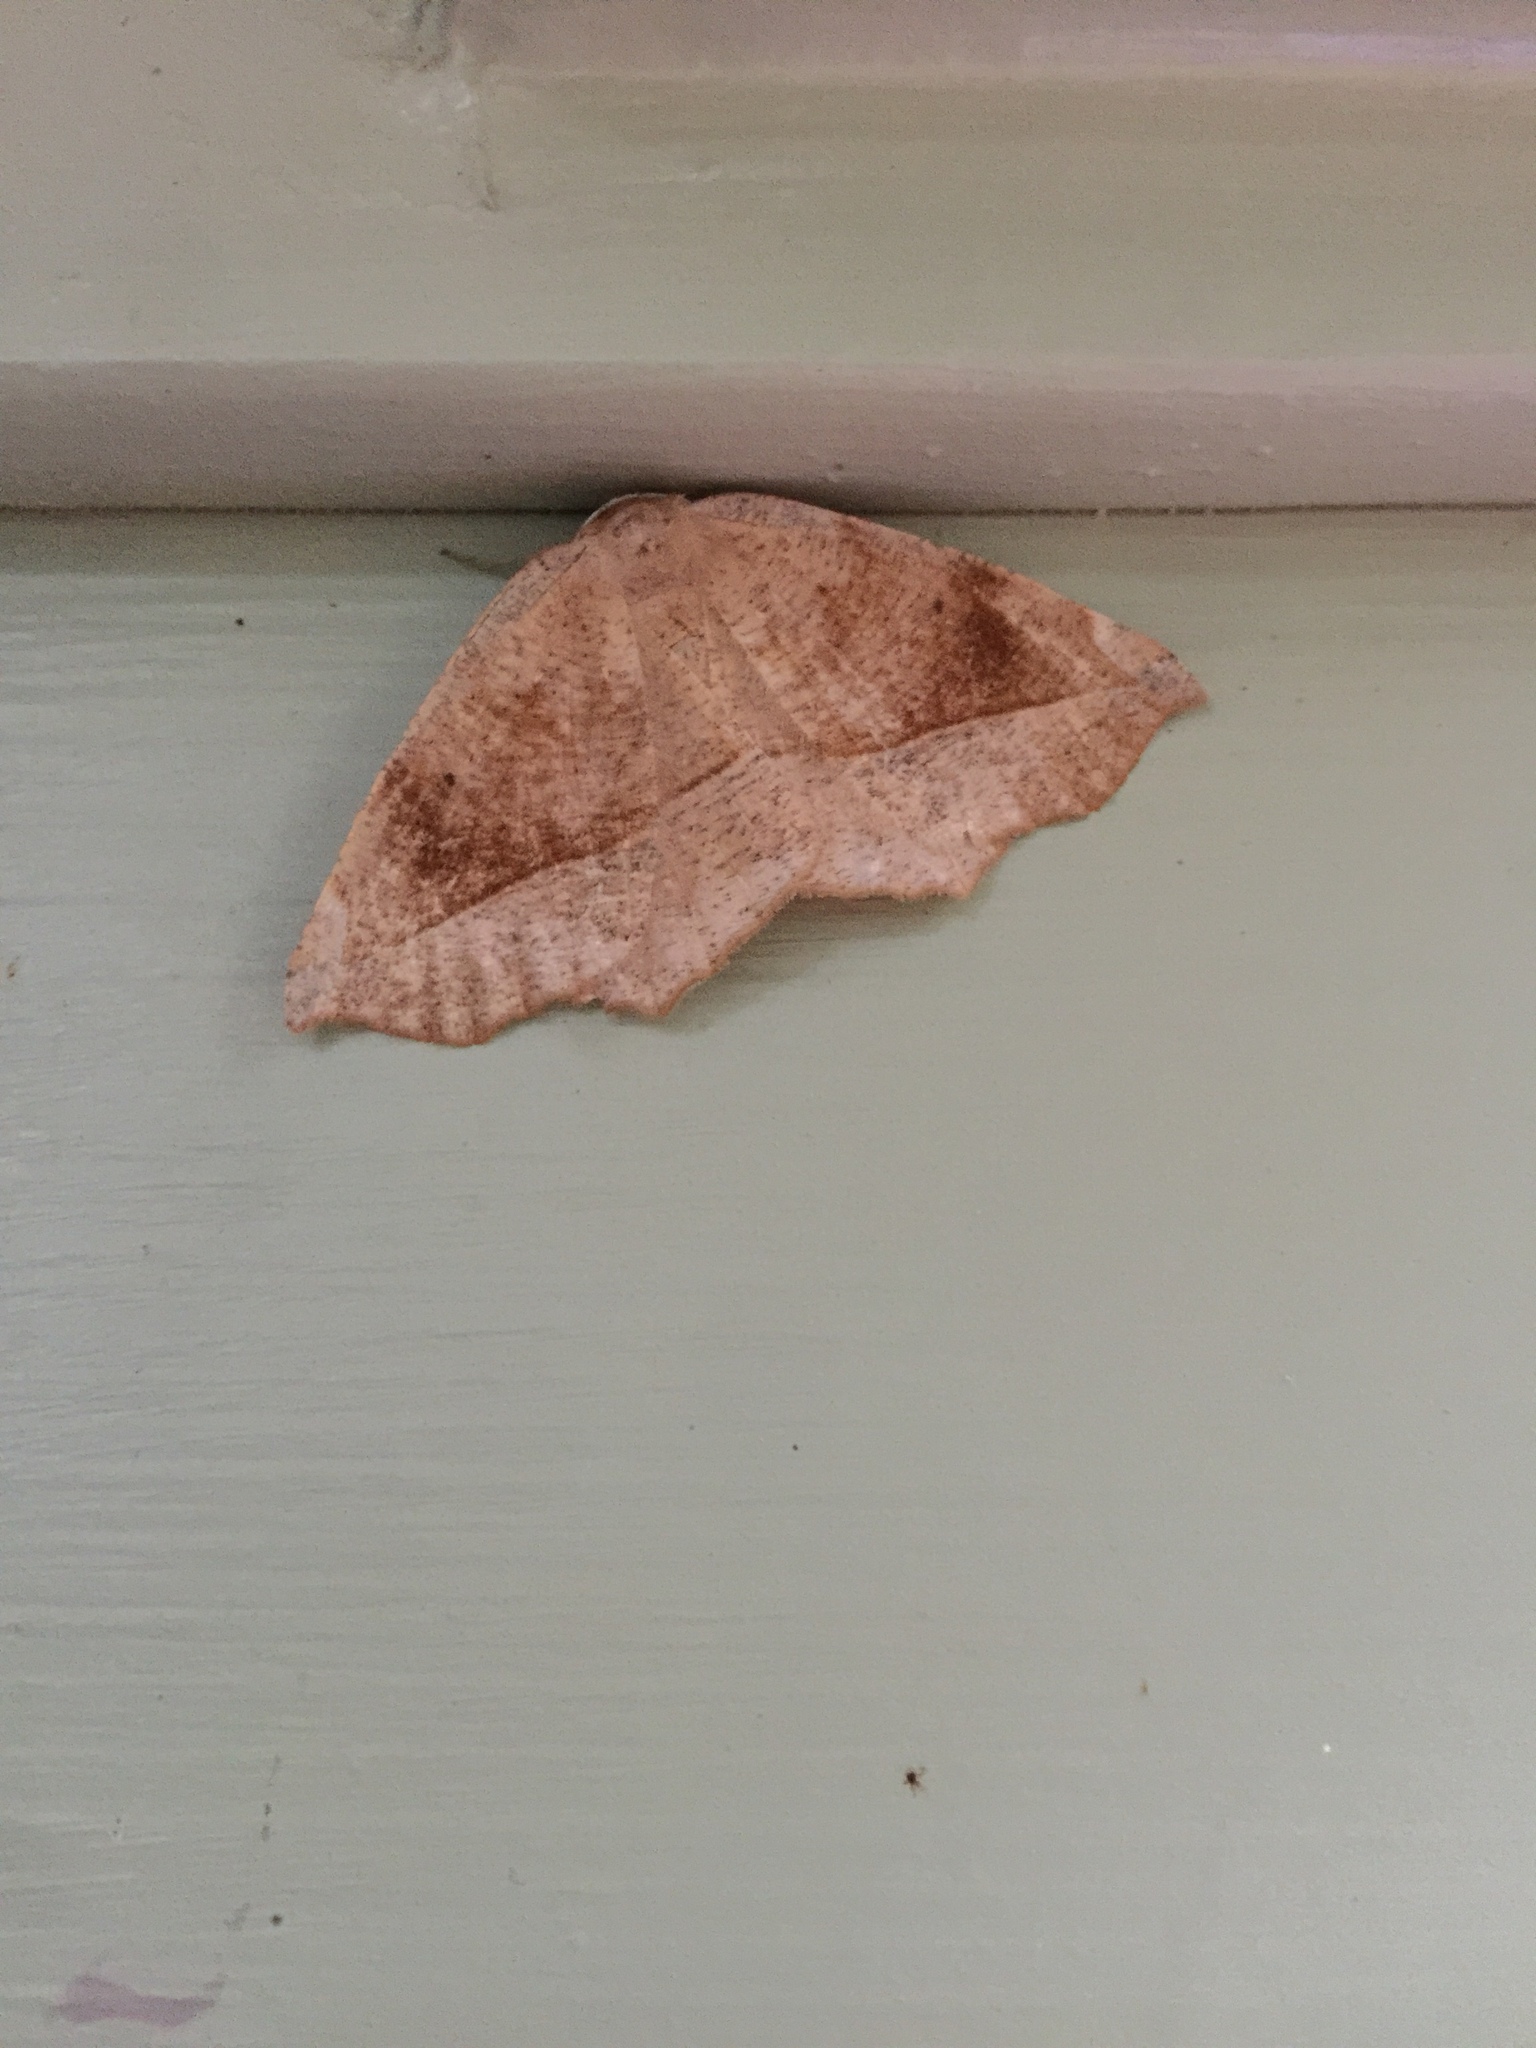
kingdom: Animalia
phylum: Arthropoda
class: Insecta
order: Lepidoptera
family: Geometridae
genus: Eutrapela
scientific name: Eutrapela clemataria
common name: Curved-toothed geometer
